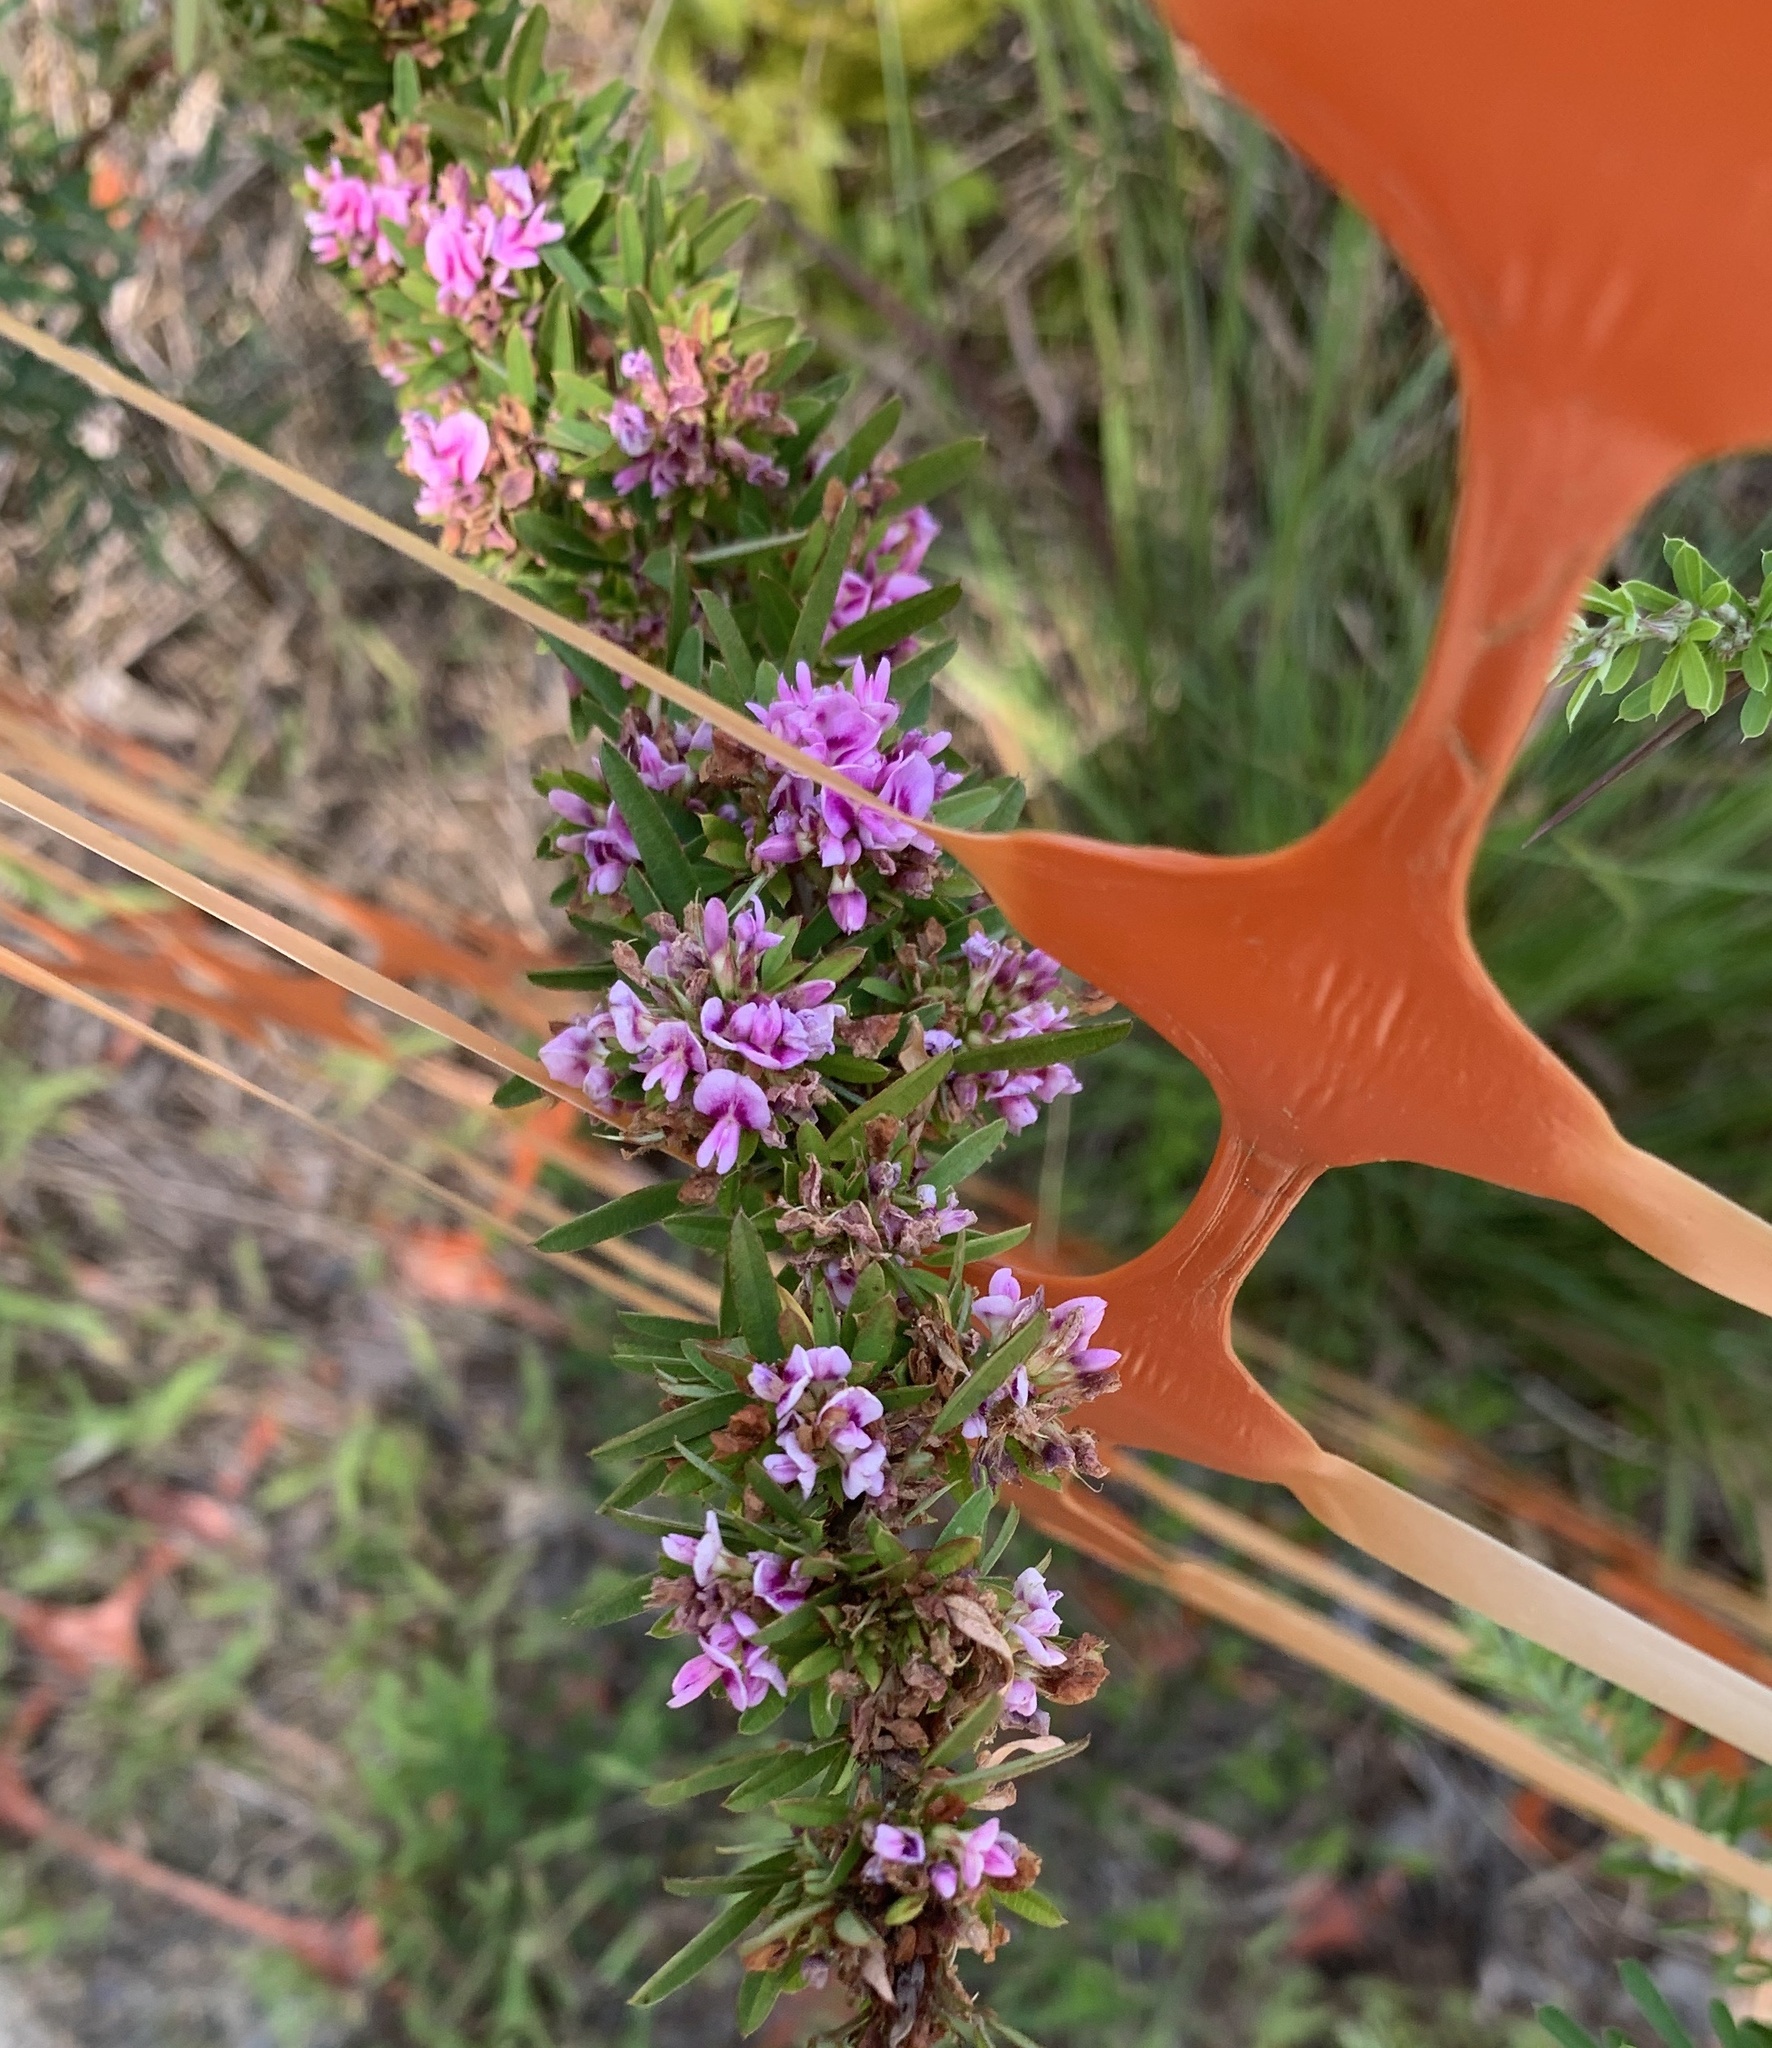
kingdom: Plantae
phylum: Tracheophyta
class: Magnoliopsida
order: Fabales
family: Fabaceae
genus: Lespedeza
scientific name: Lespedeza virginica
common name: Slender bush-clover
